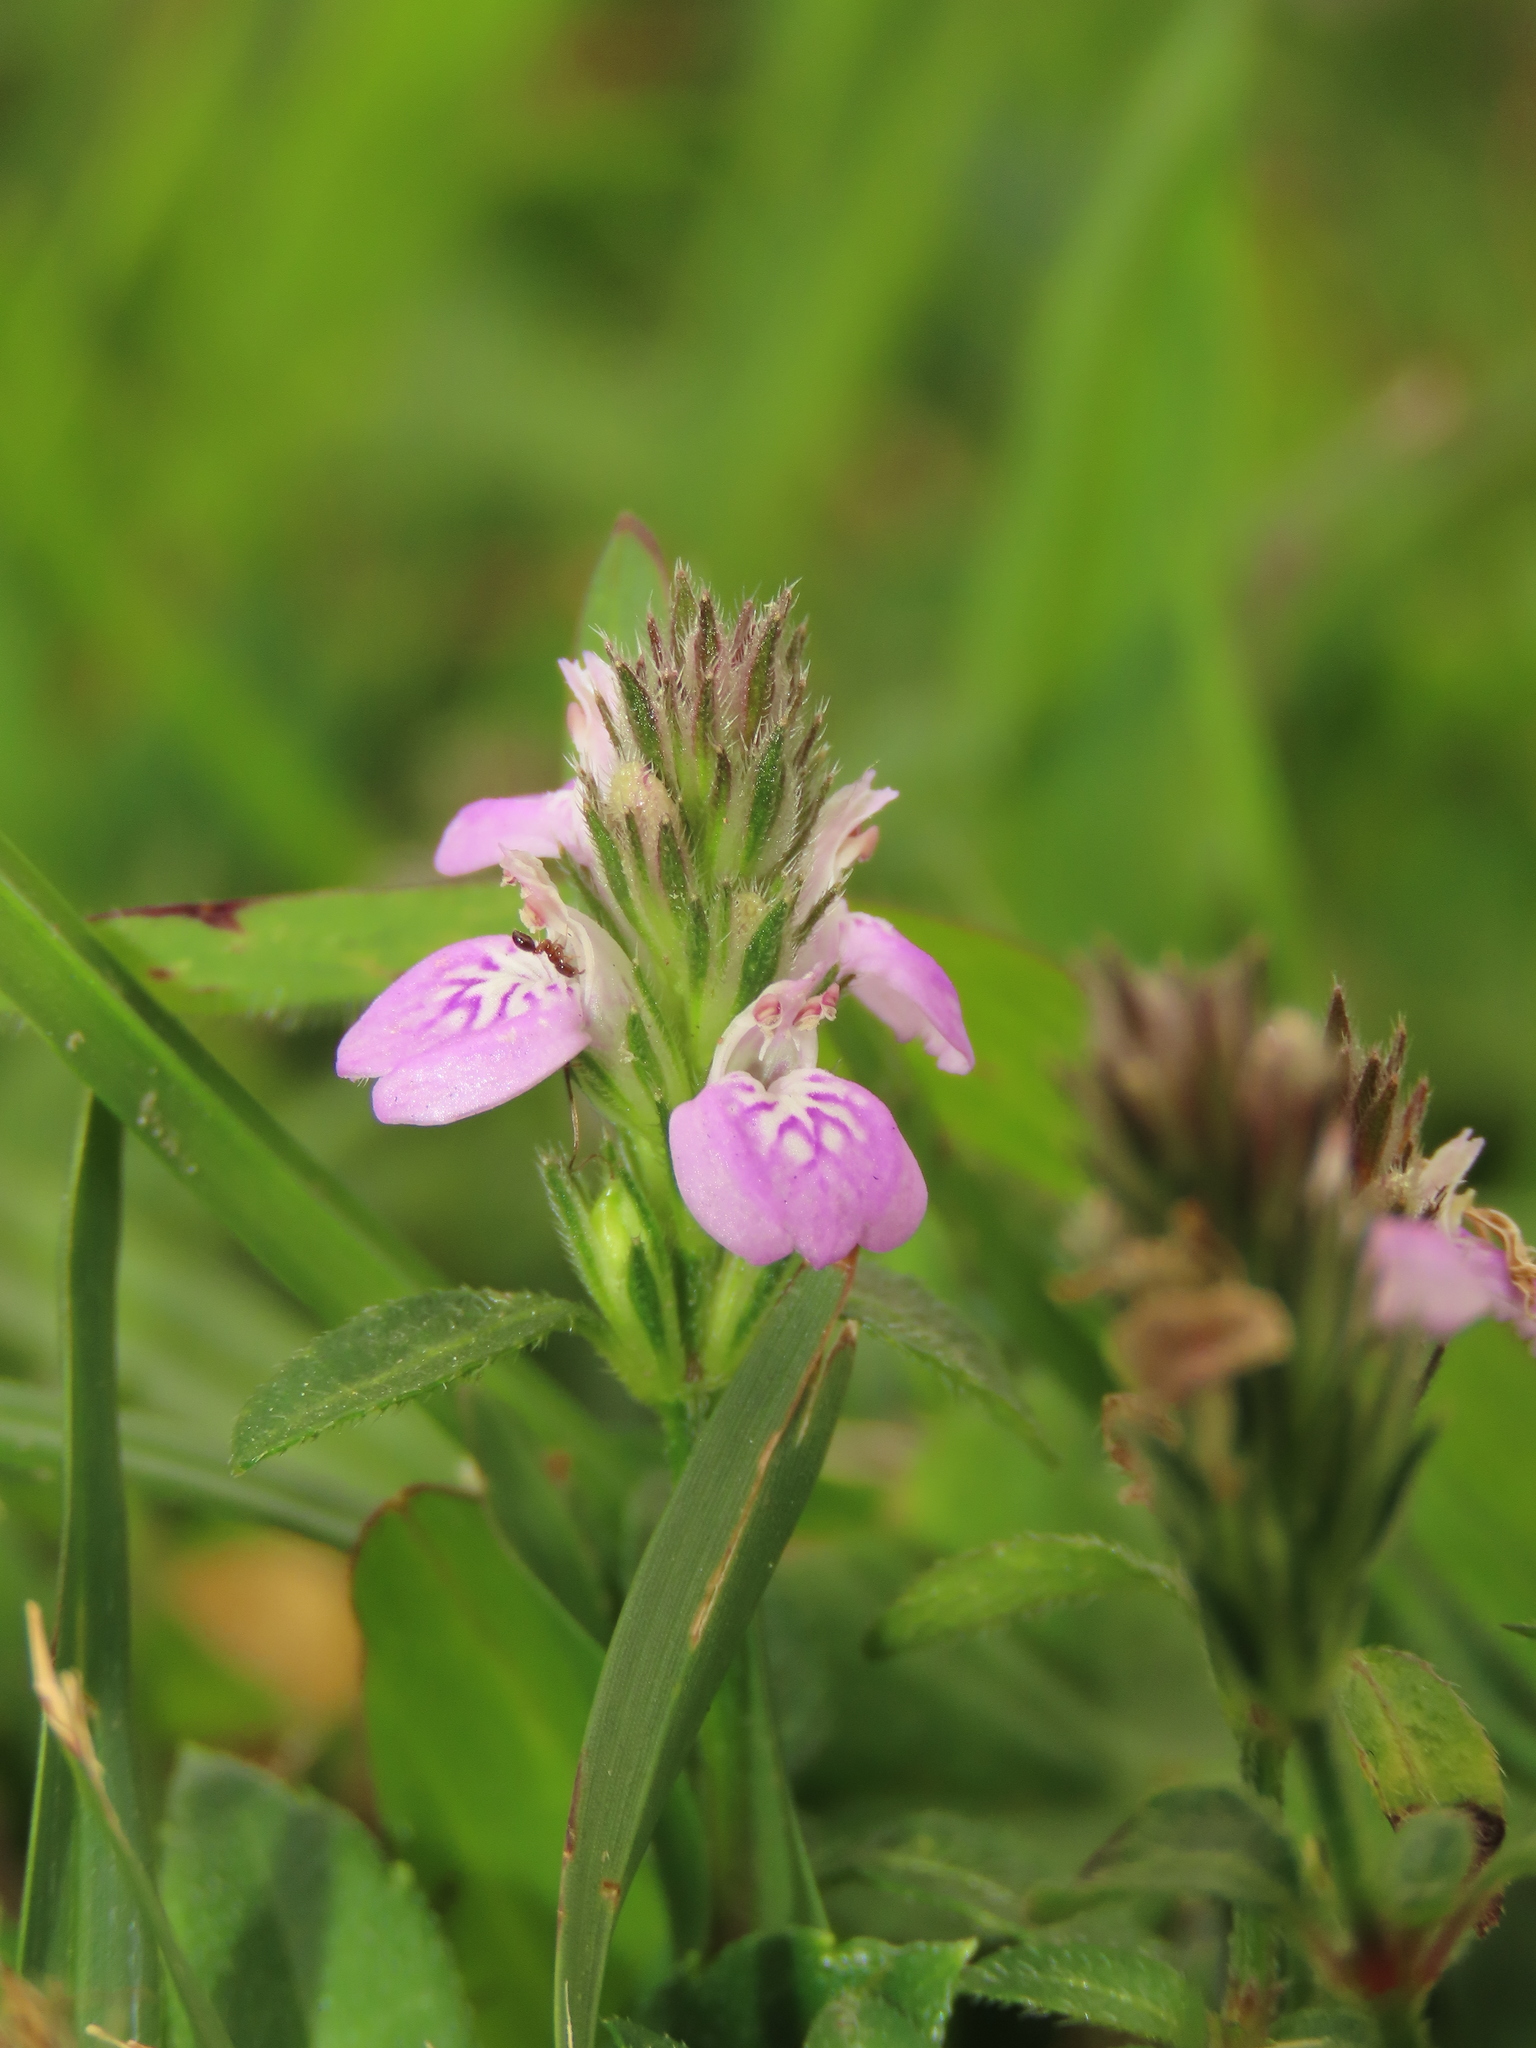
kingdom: Plantae
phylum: Tracheophyta
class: Magnoliopsida
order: Lamiales
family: Acanthaceae
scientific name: Acanthaceae
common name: Acanthaceae
